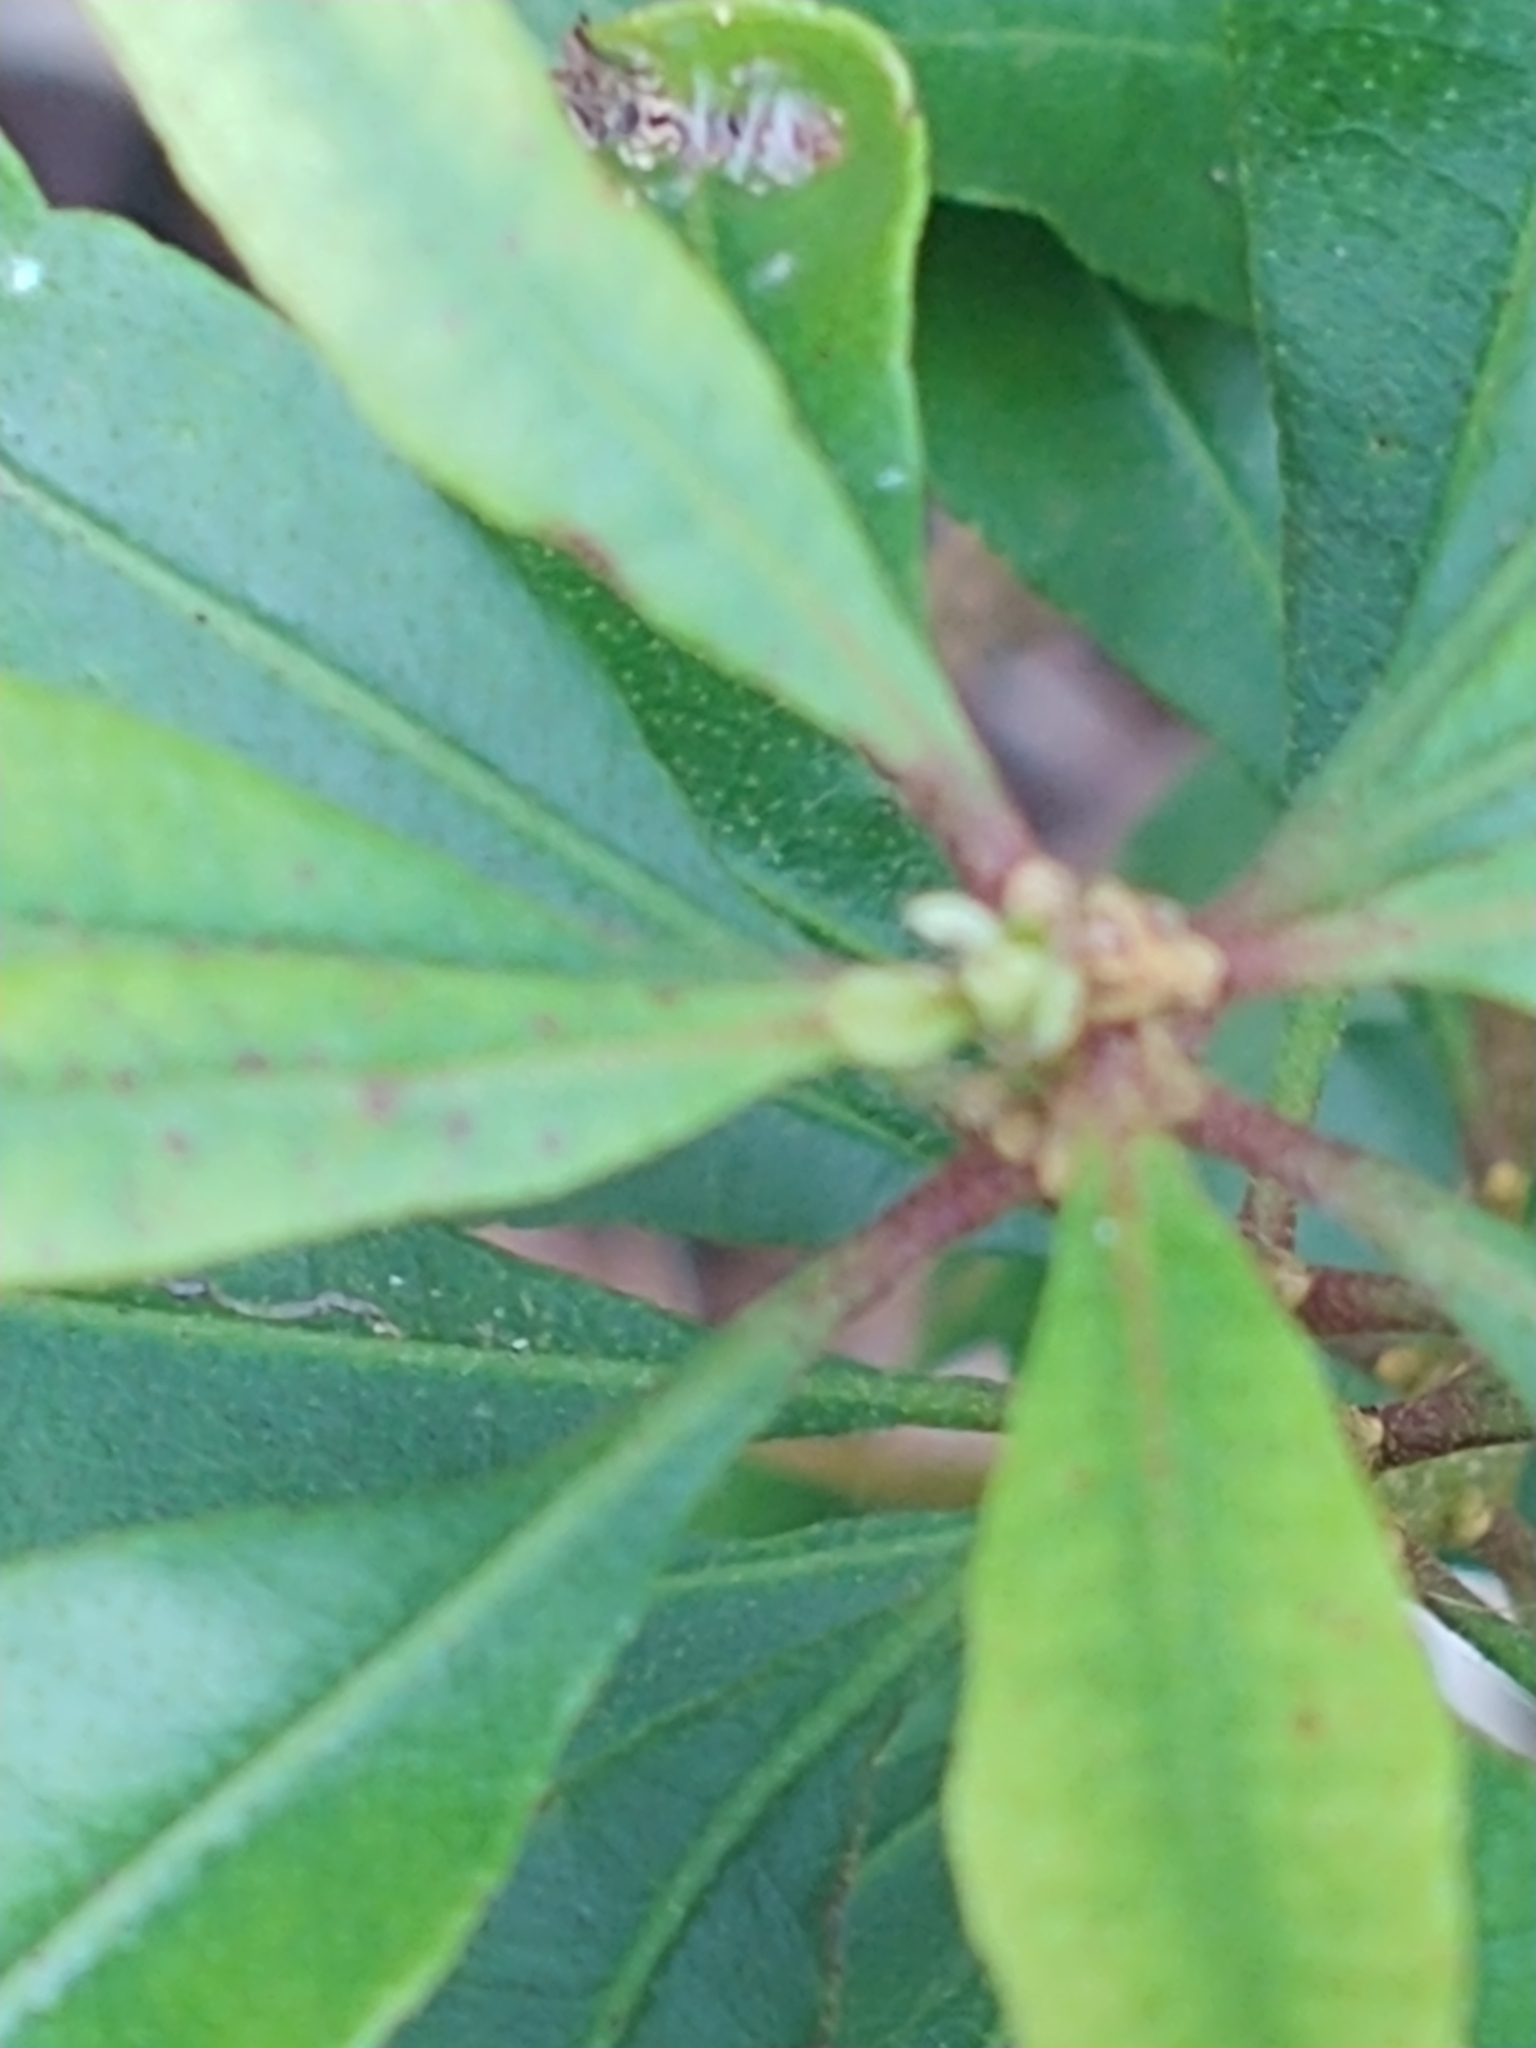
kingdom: Plantae
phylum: Tracheophyta
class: Magnoliopsida
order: Fagales
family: Myricaceae
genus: Morella
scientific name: Morella cerifera
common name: Wax myrtle
